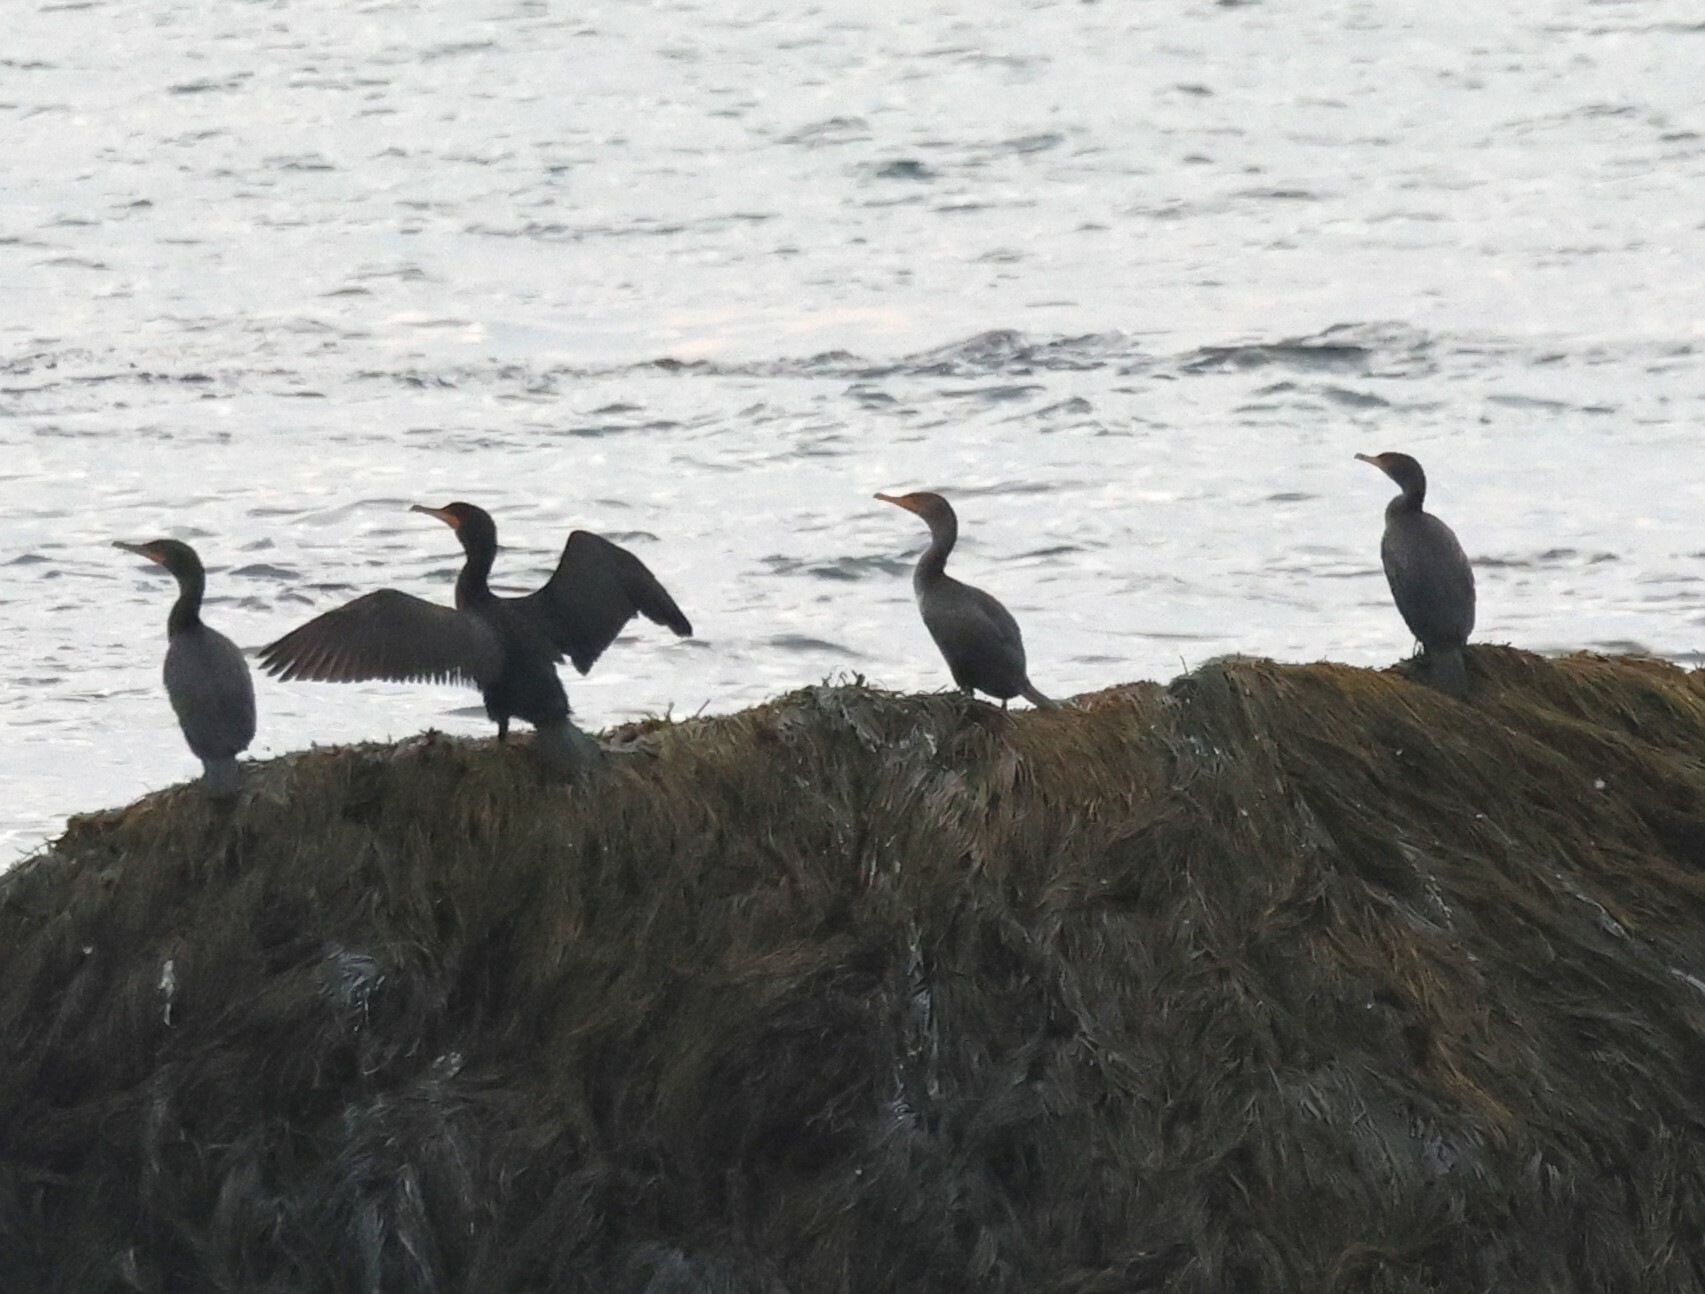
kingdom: Animalia
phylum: Chordata
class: Aves
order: Suliformes
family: Phalacrocoracidae
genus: Phalacrocorax
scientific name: Phalacrocorax auritus
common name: Double-crested cormorant
